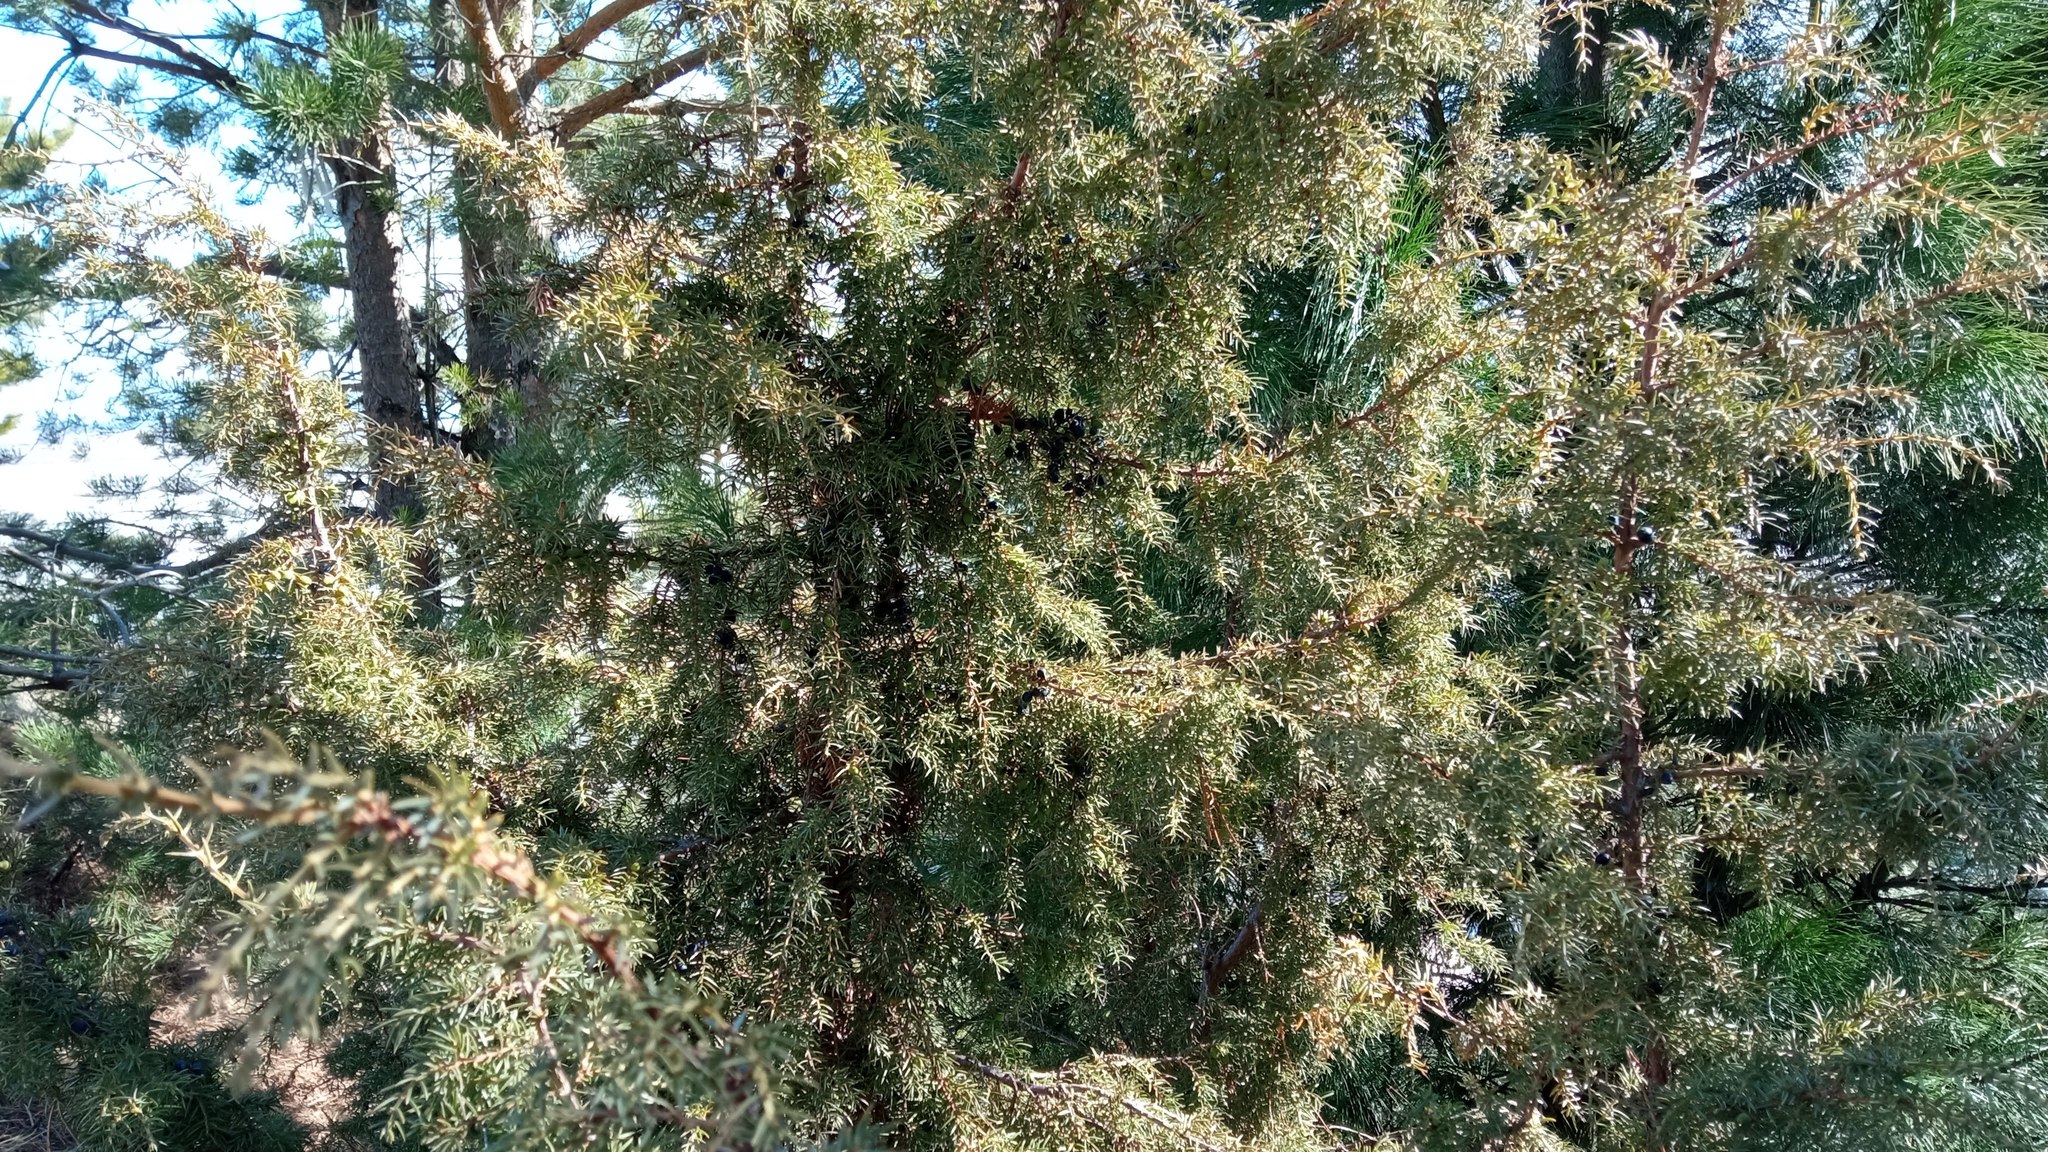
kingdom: Plantae
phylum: Tracheophyta
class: Pinopsida
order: Pinales
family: Cupressaceae
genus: Juniperus
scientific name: Juniperus communis
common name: Common juniper
